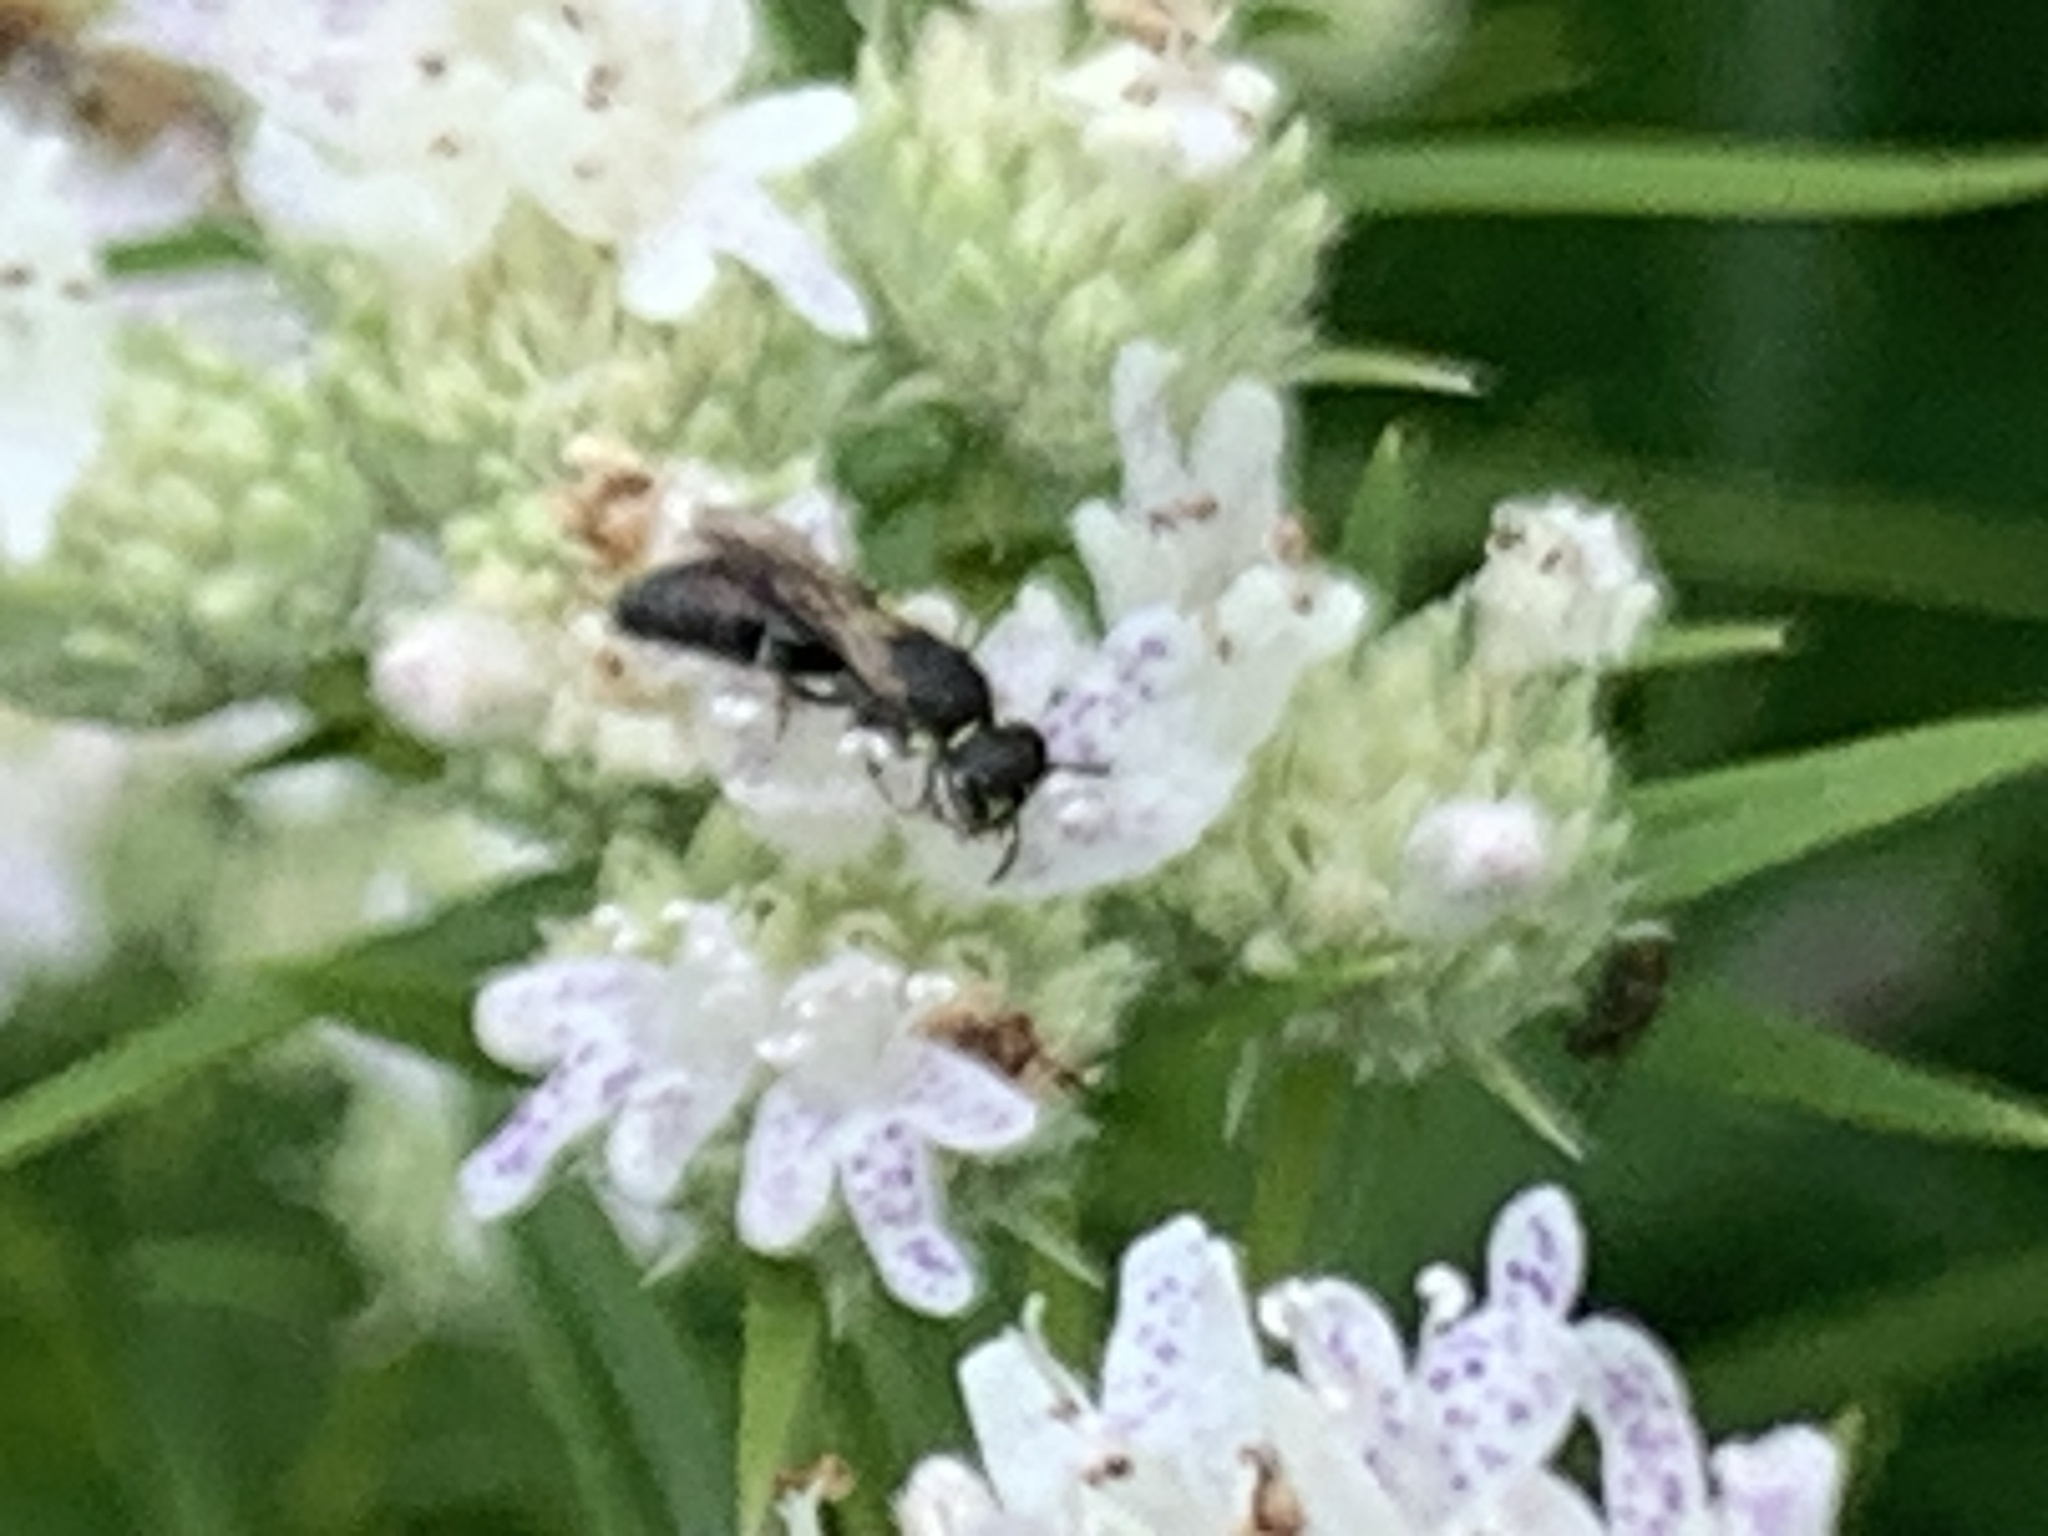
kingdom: Animalia
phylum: Arthropoda
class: Insecta
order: Hymenoptera
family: Colletidae
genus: Hylaeus
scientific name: Hylaeus leptocephalus
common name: Slender-faced masked bee
